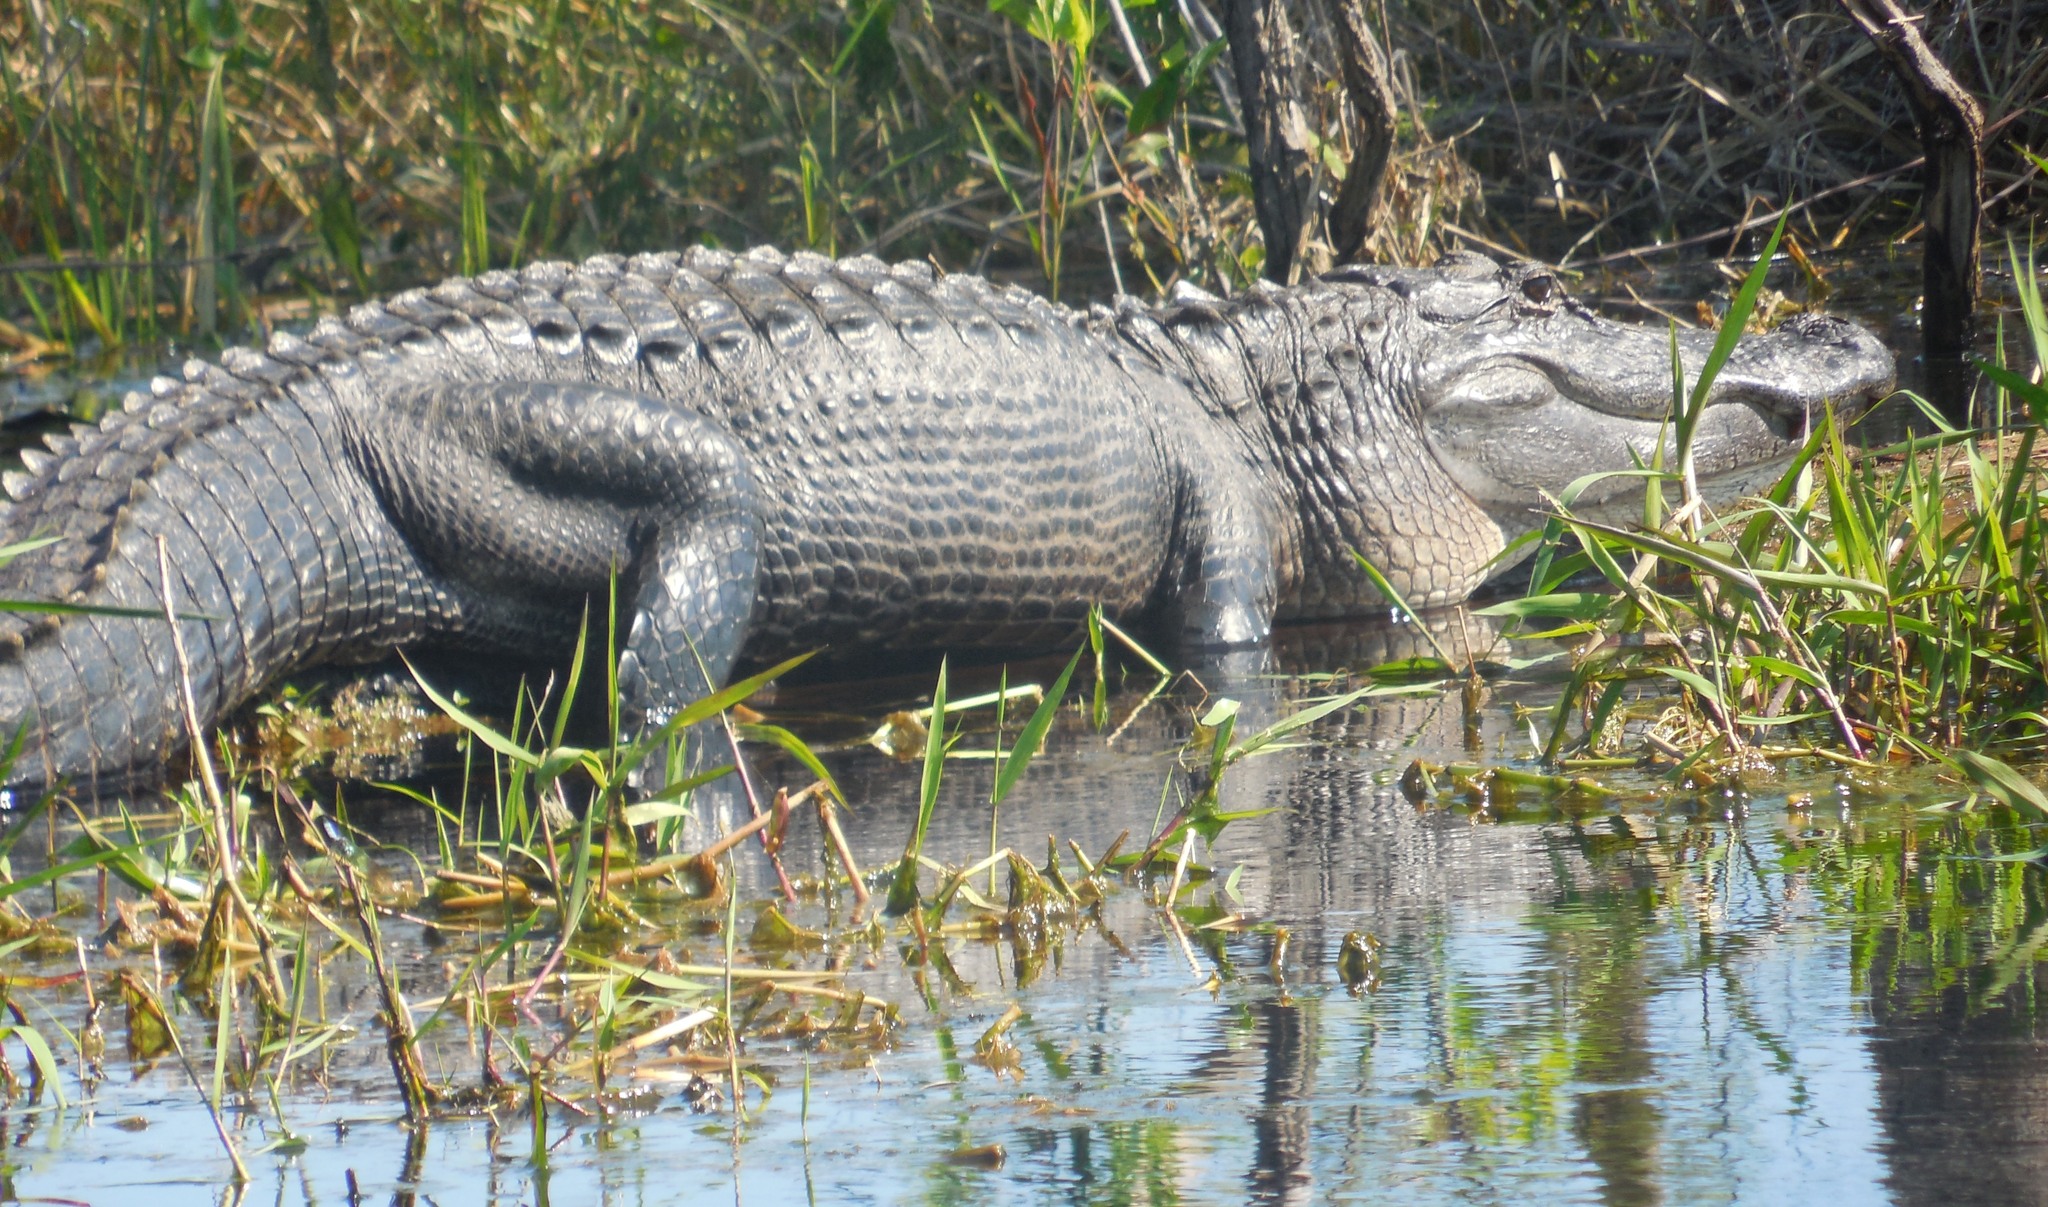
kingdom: Animalia
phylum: Chordata
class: Crocodylia
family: Alligatoridae
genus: Alligator
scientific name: Alligator mississippiensis
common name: American alligator
